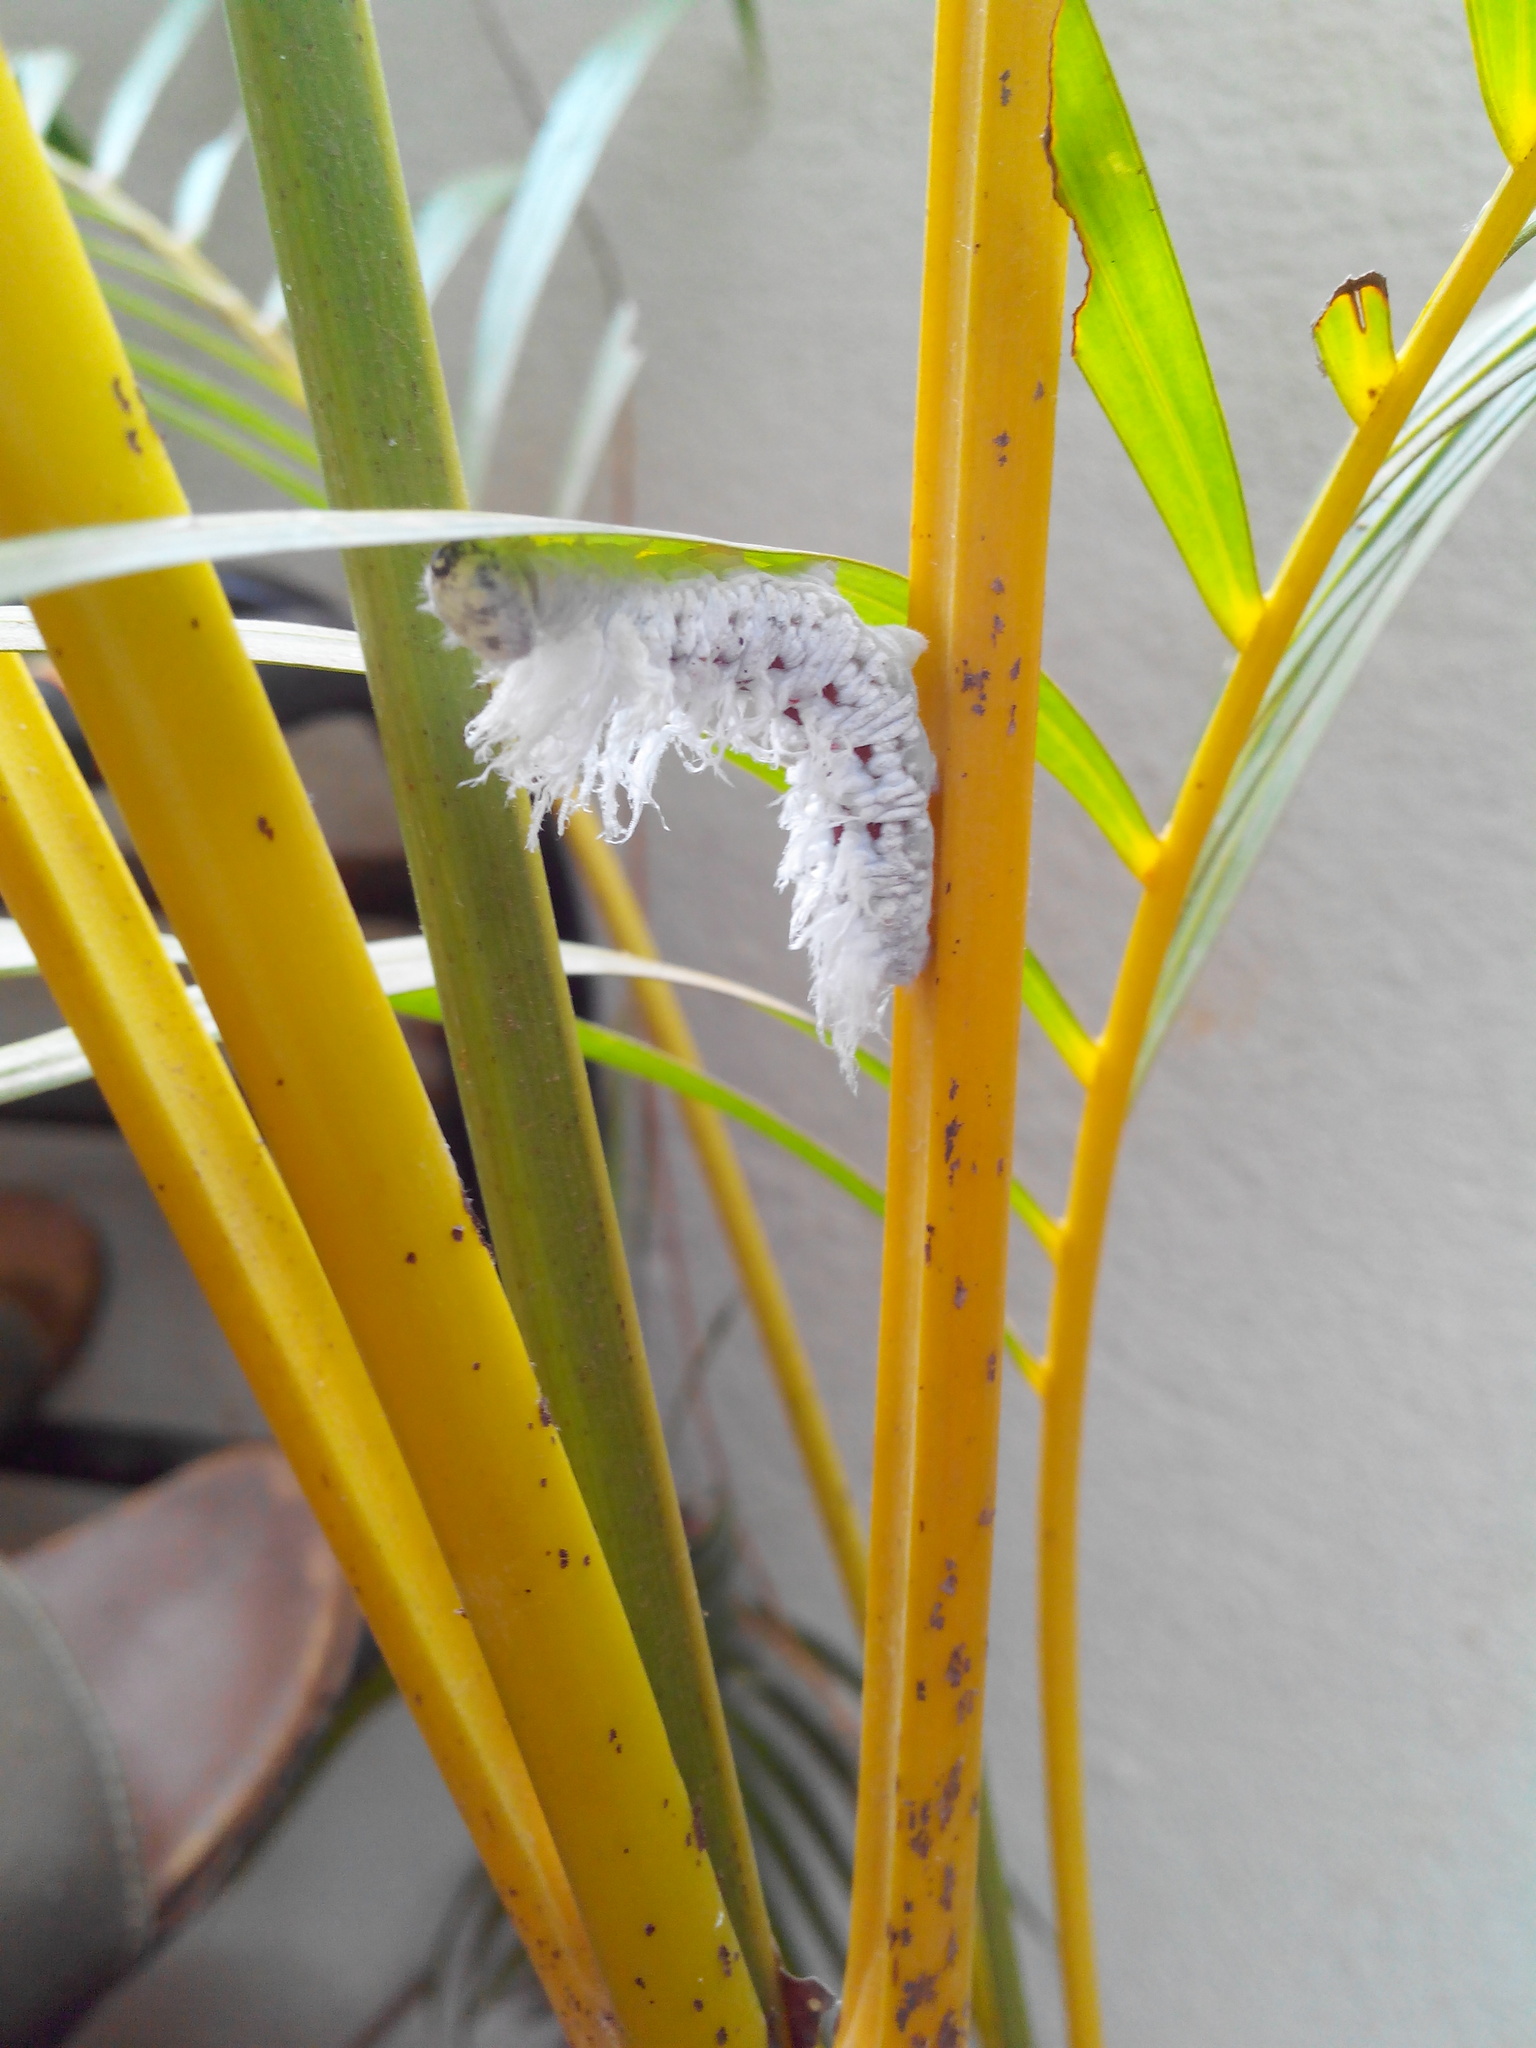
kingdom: Animalia
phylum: Arthropoda
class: Insecta
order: Lepidoptera
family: Hesperiidae
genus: Gangara
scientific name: Gangara thyrsis
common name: Giant redeye
